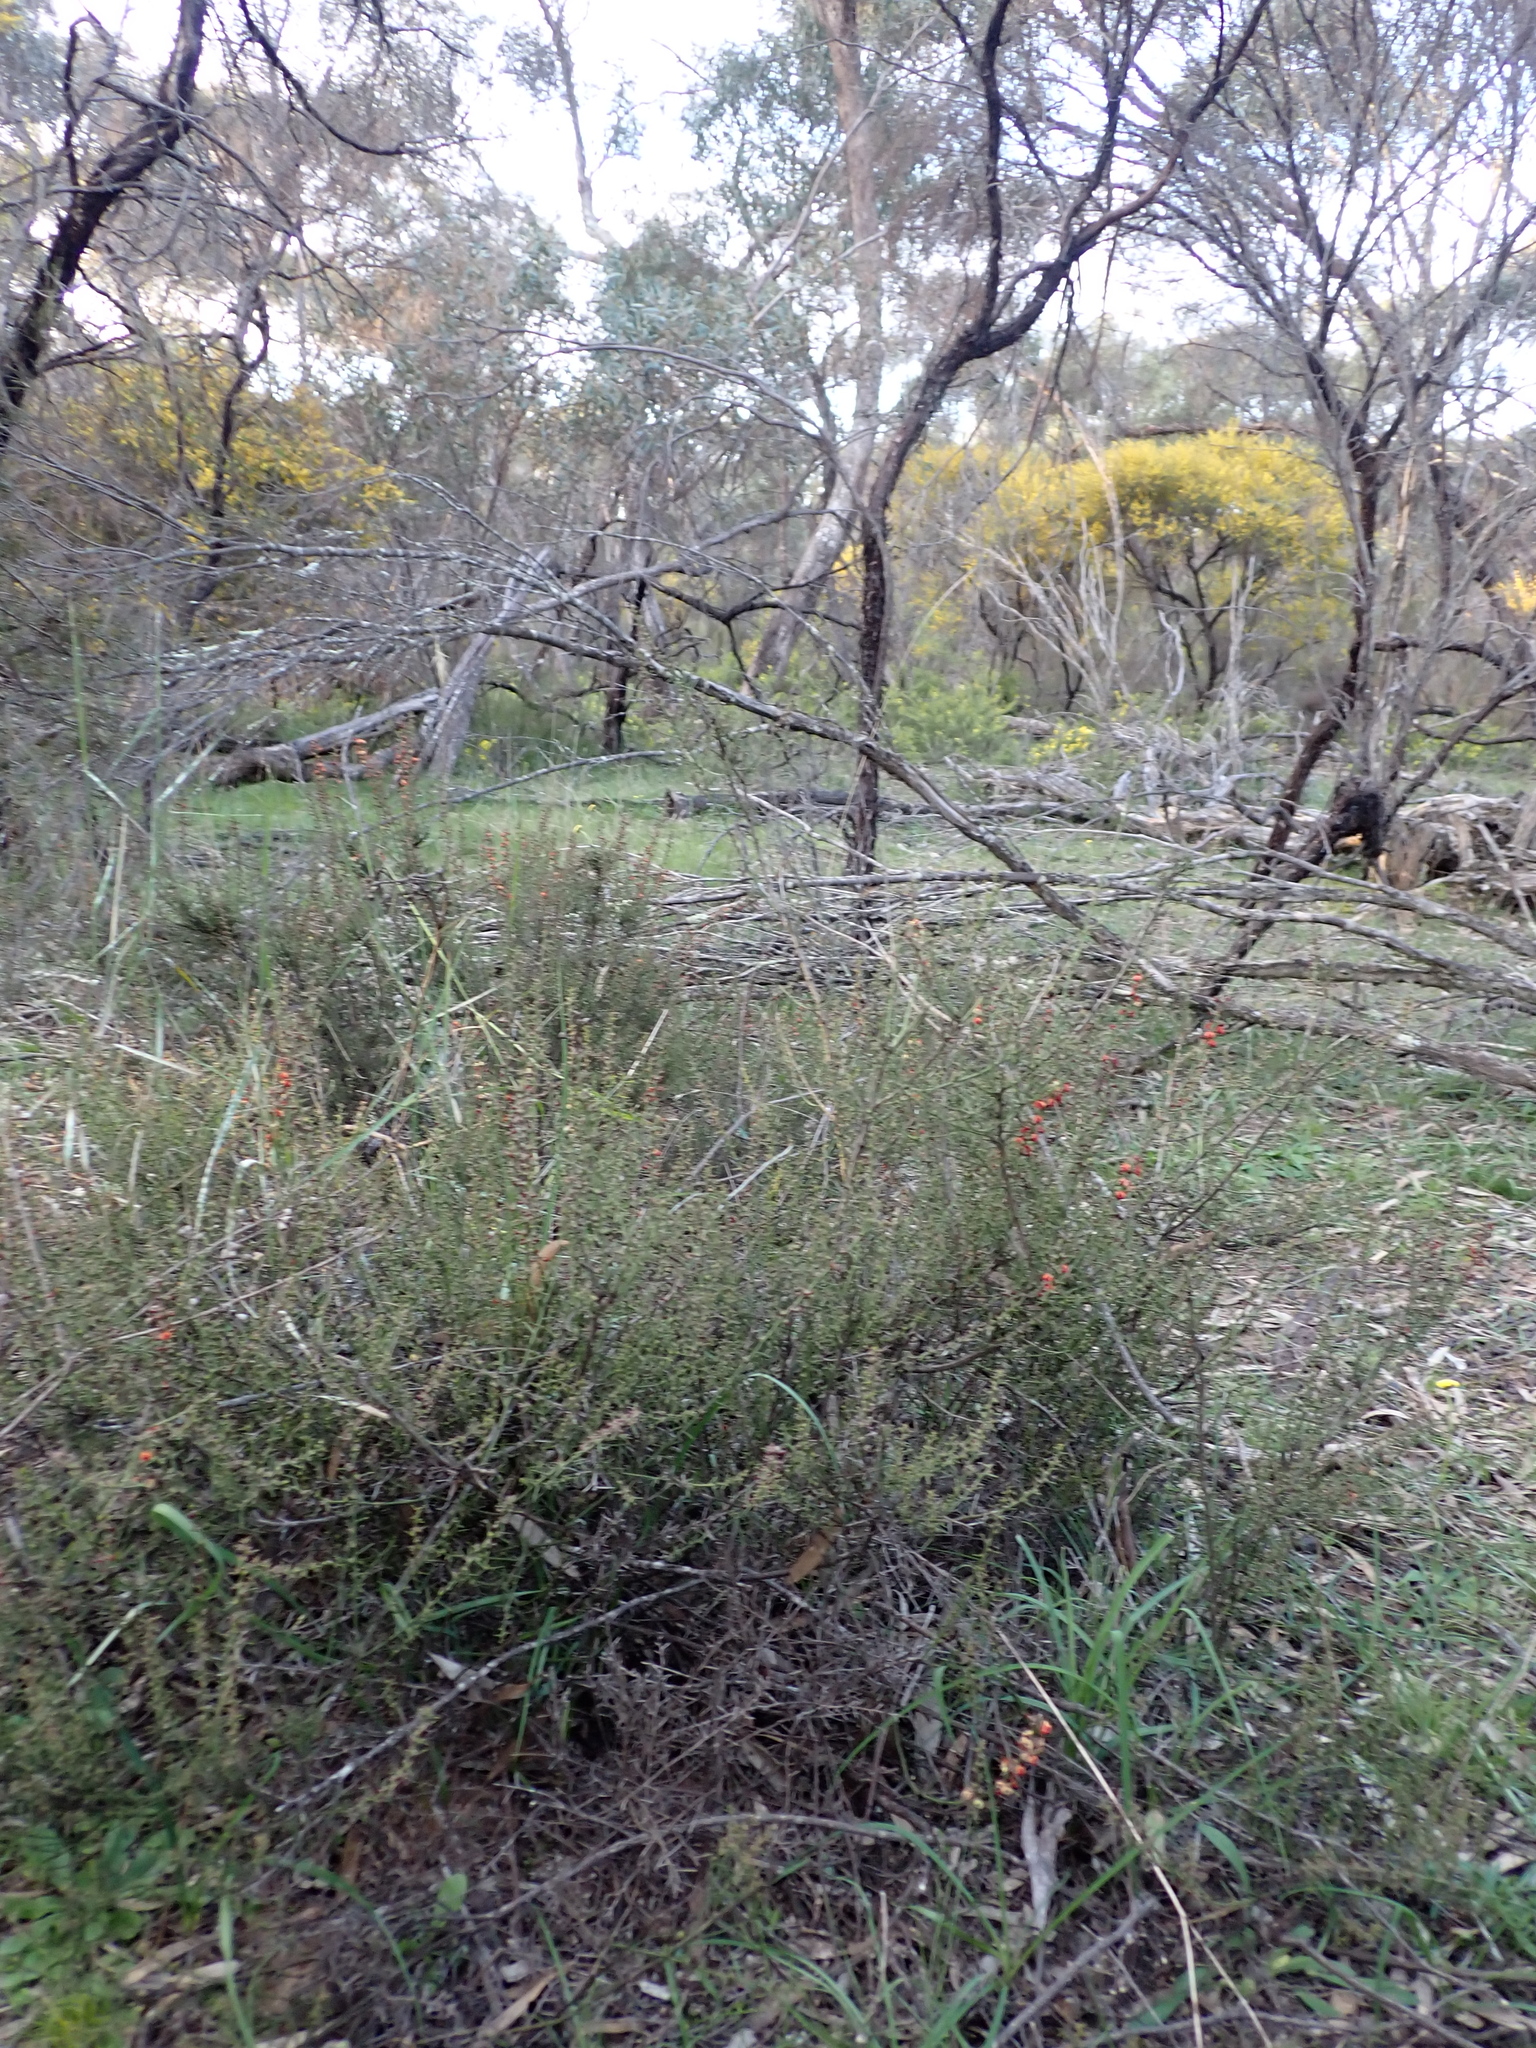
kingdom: Plantae
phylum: Tracheophyta
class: Magnoliopsida
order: Fabales
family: Fabaceae
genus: Daviesia
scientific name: Daviesia devito
